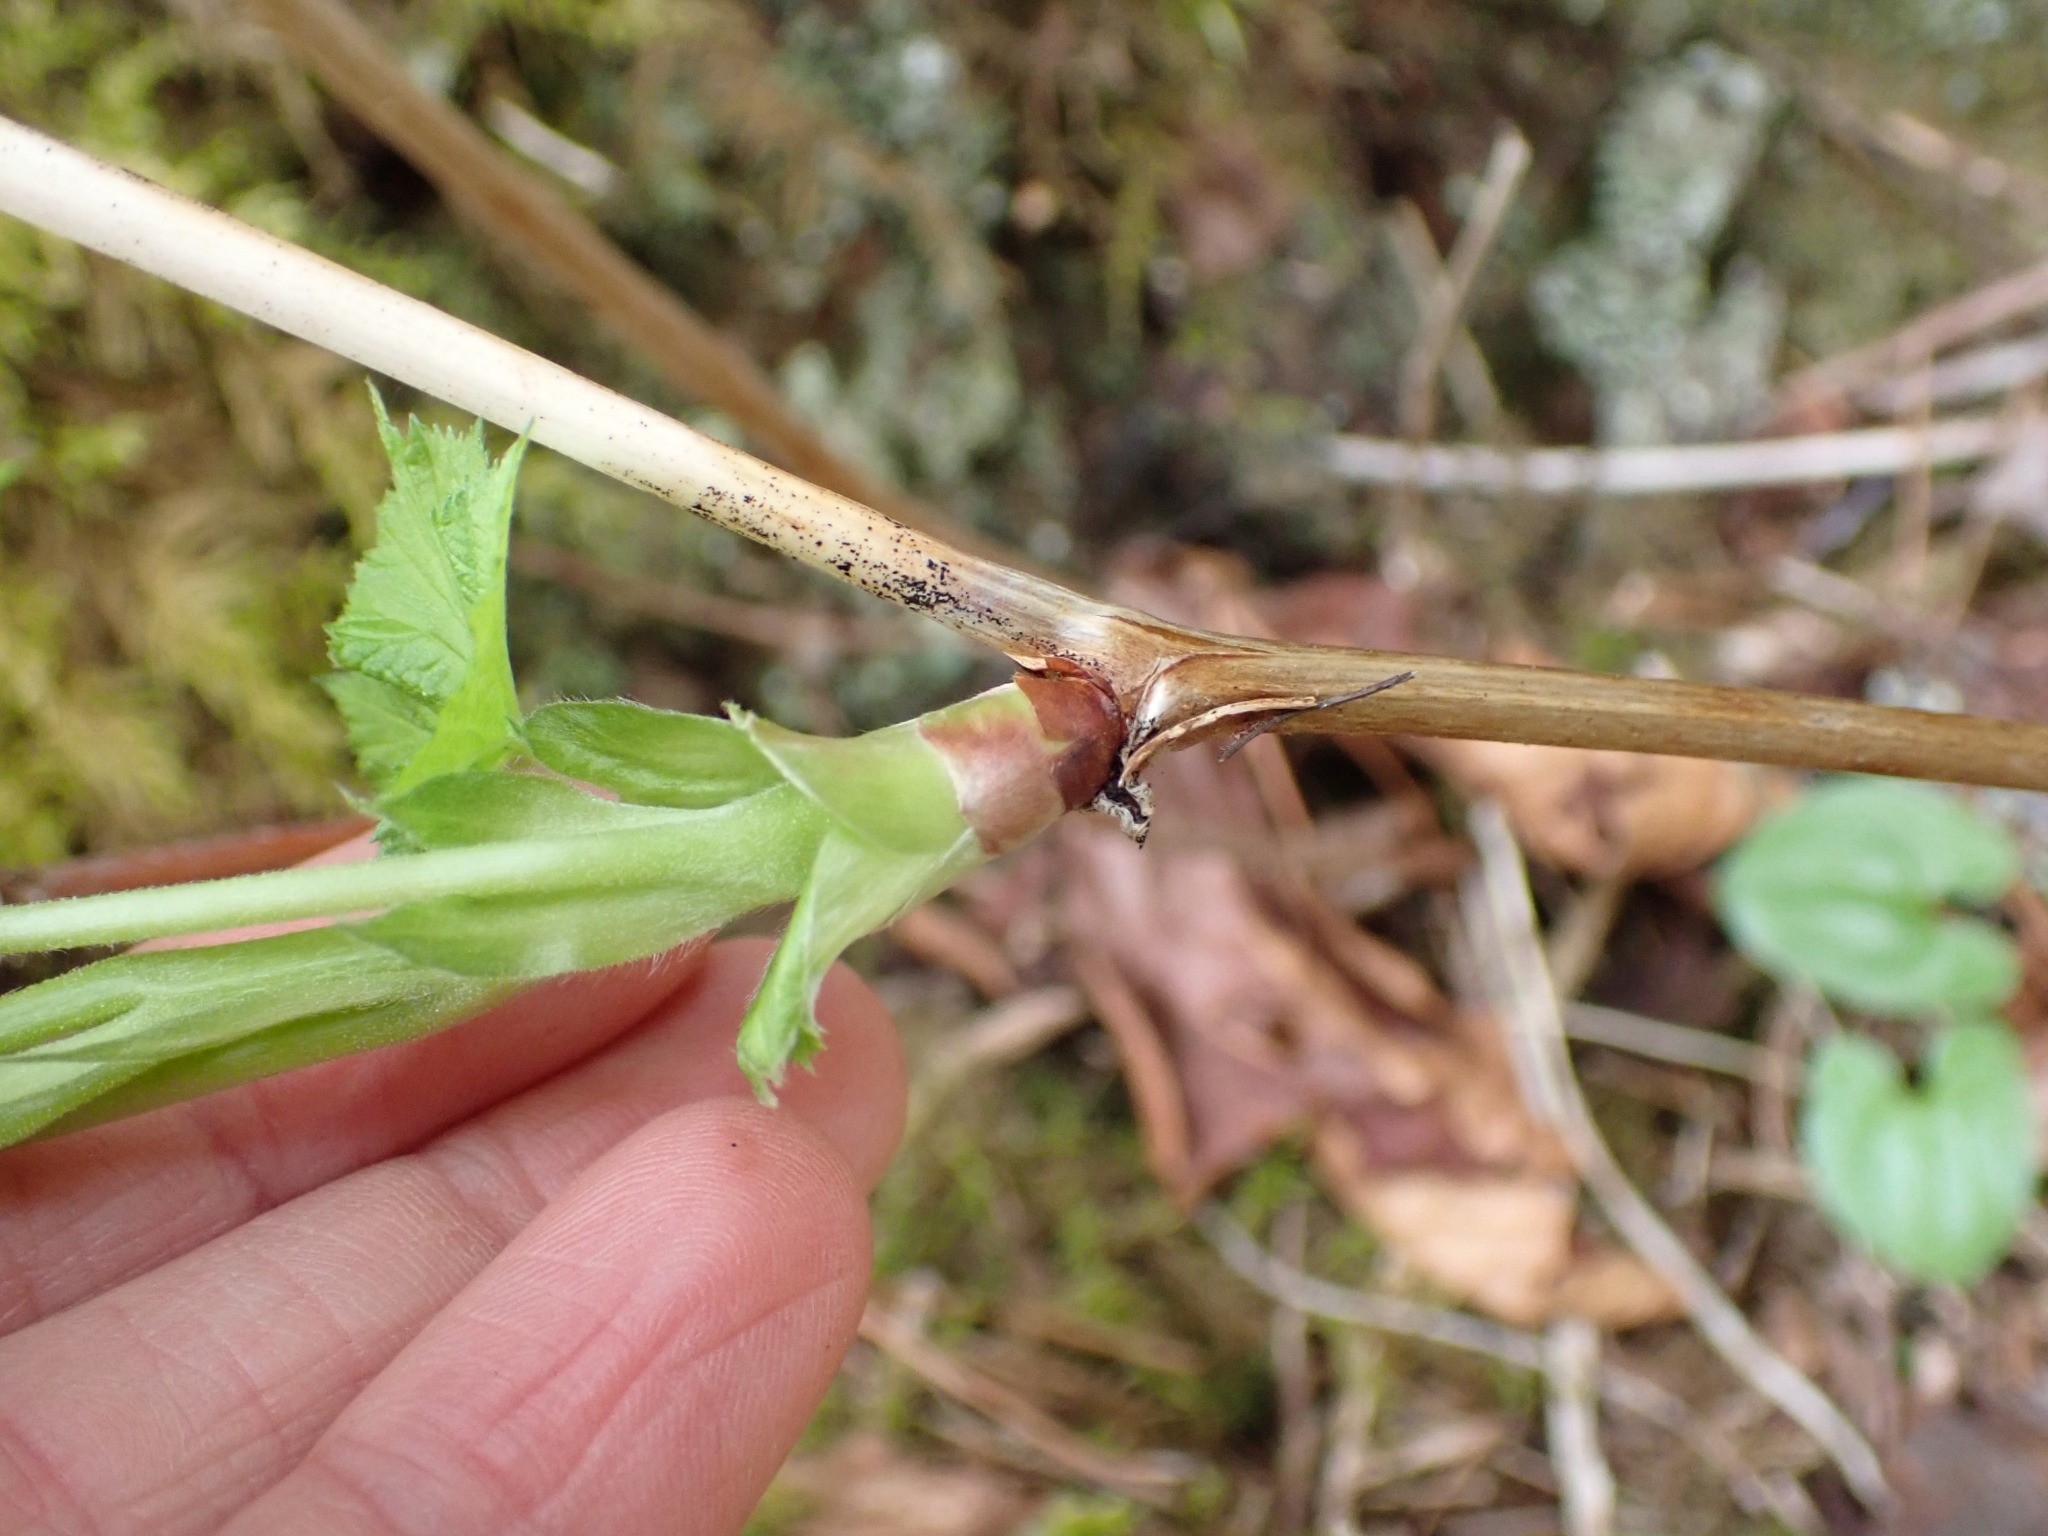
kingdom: Plantae
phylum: Tracheophyta
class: Magnoliopsida
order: Rosales
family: Rosaceae
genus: Rubus
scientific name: Rubus parviflorus
